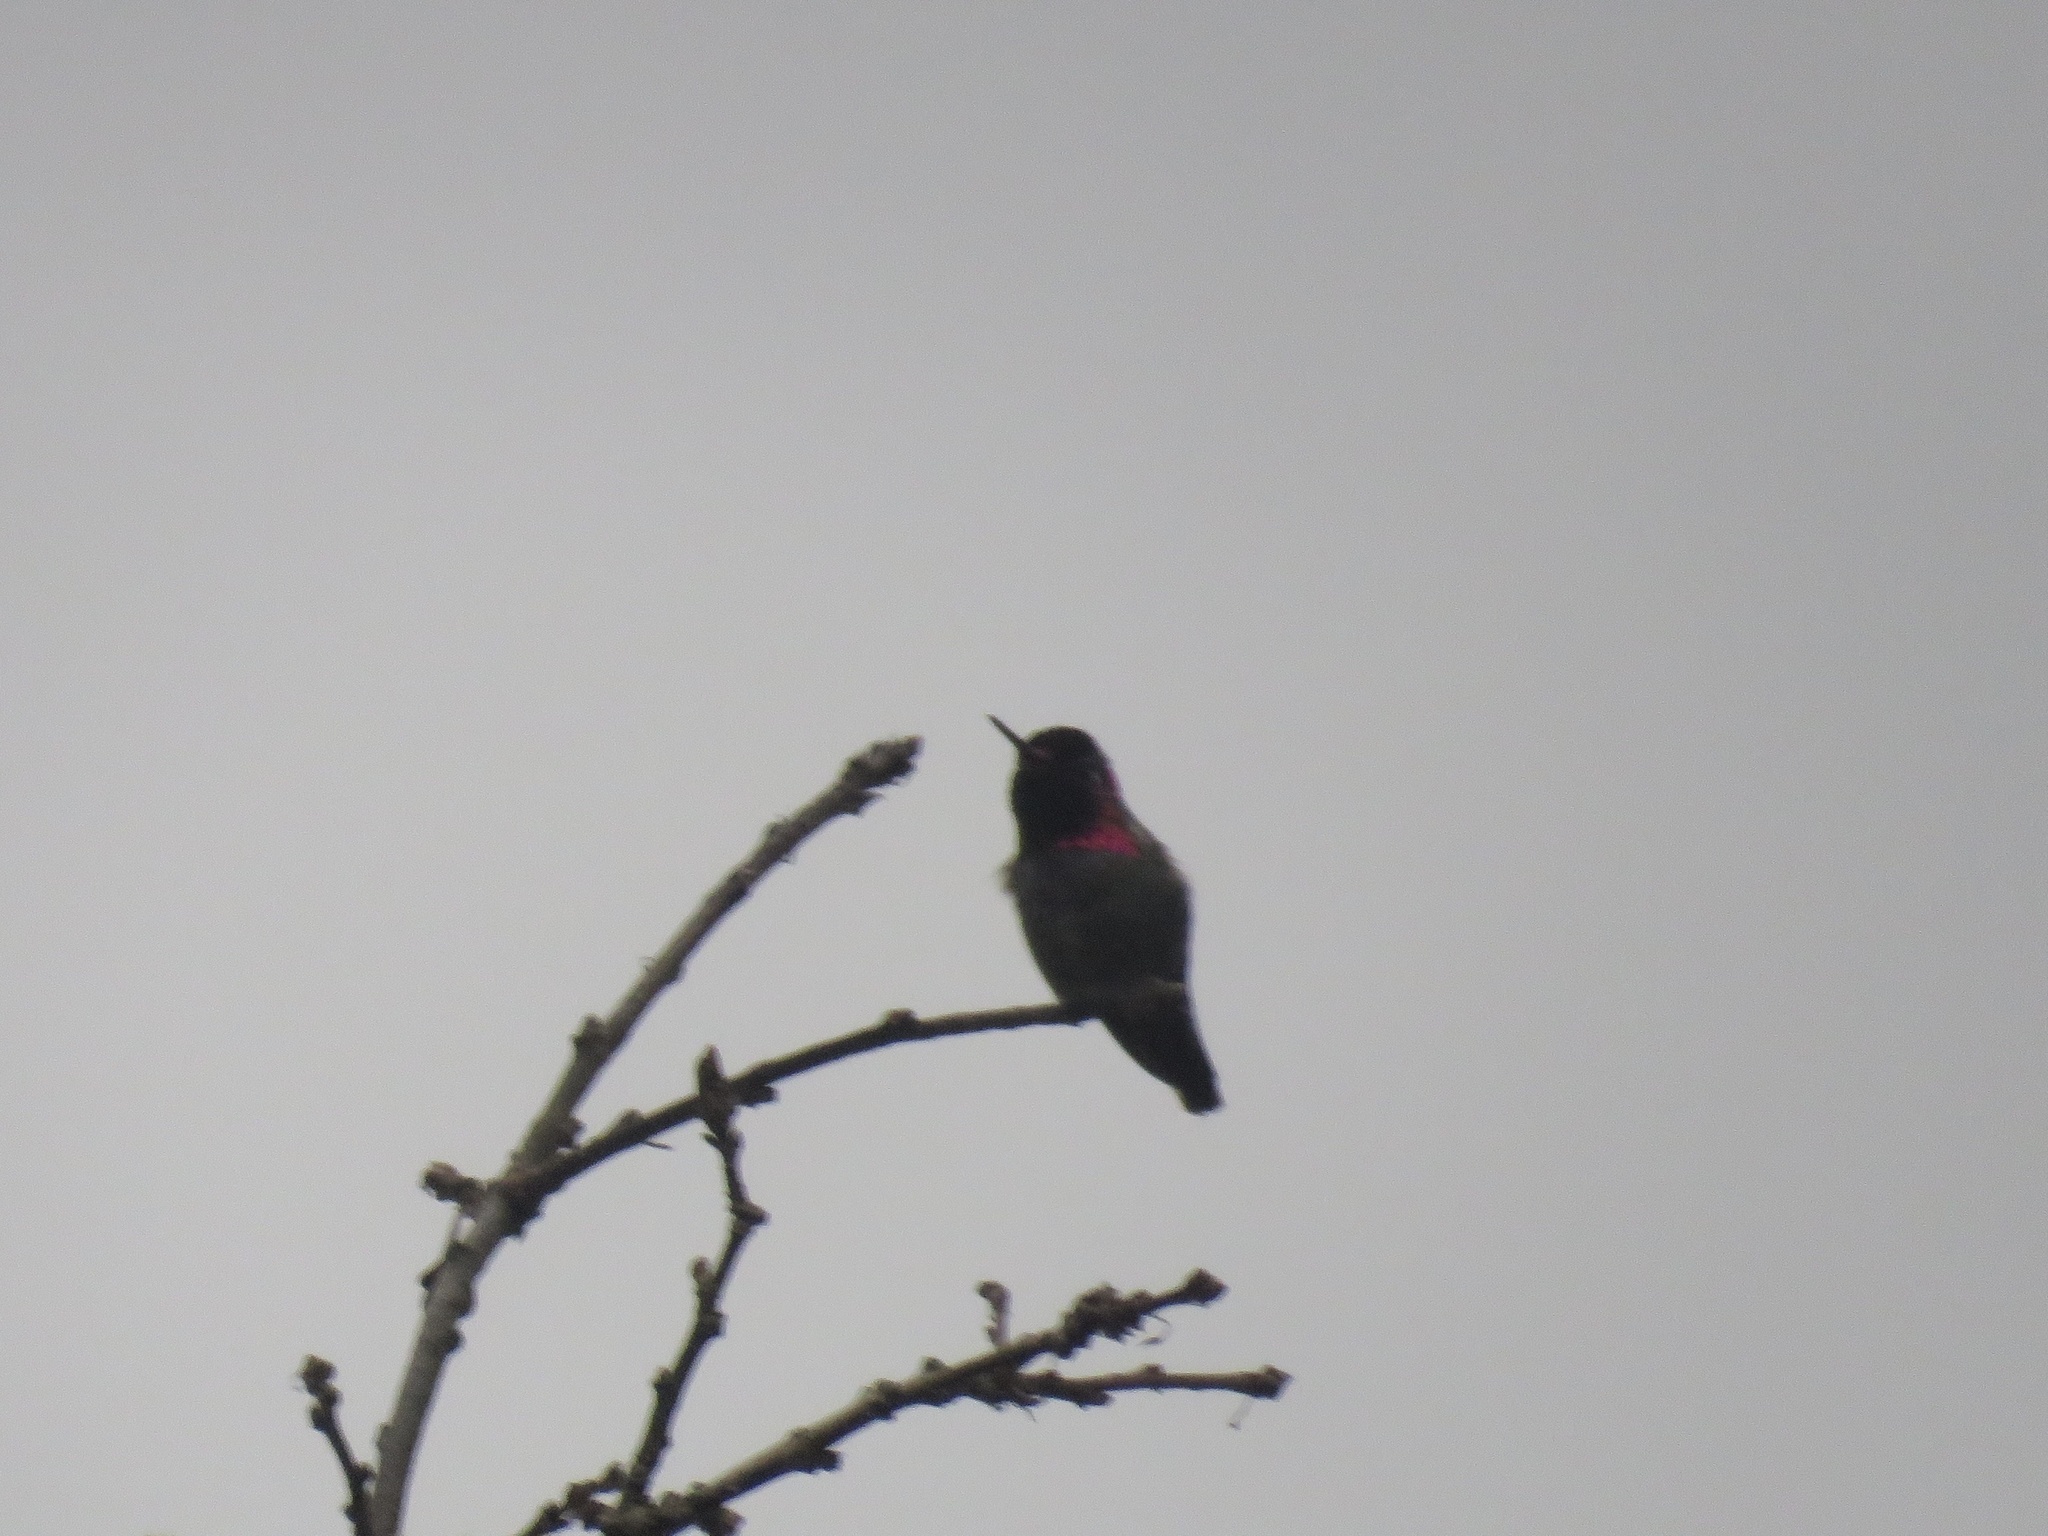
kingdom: Animalia
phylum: Chordata
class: Aves
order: Apodiformes
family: Trochilidae
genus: Calypte
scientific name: Calypte anna
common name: Anna's hummingbird
